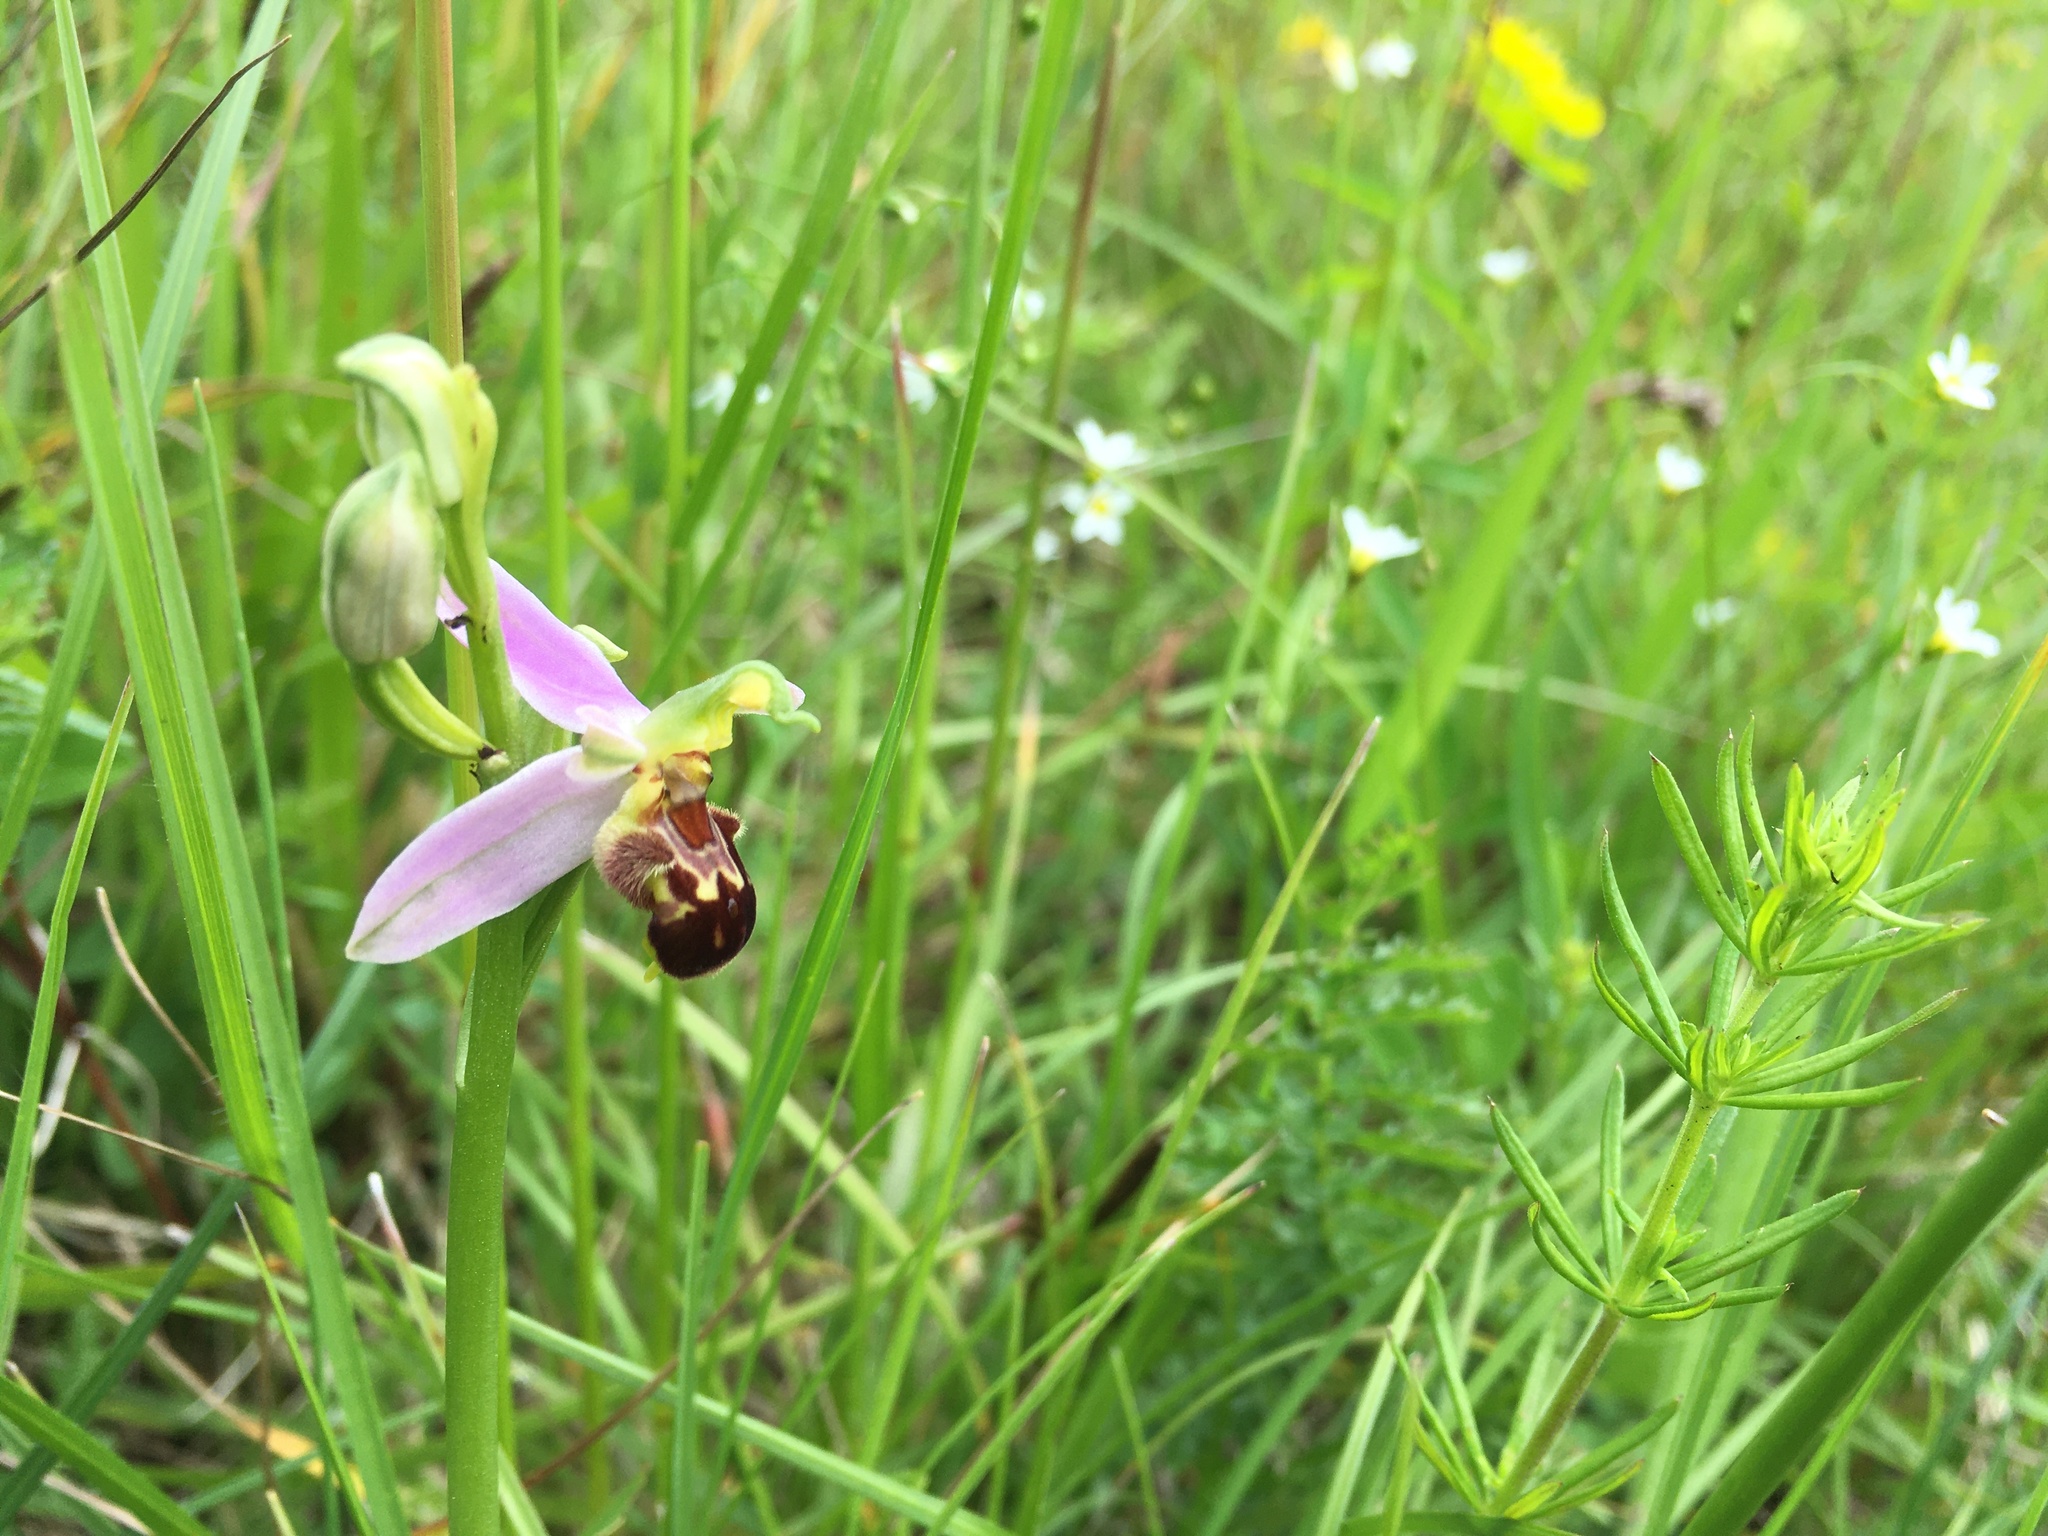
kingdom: Plantae
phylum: Tracheophyta
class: Liliopsida
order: Asparagales
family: Orchidaceae
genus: Ophrys
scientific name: Ophrys apifera
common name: Bee orchid
